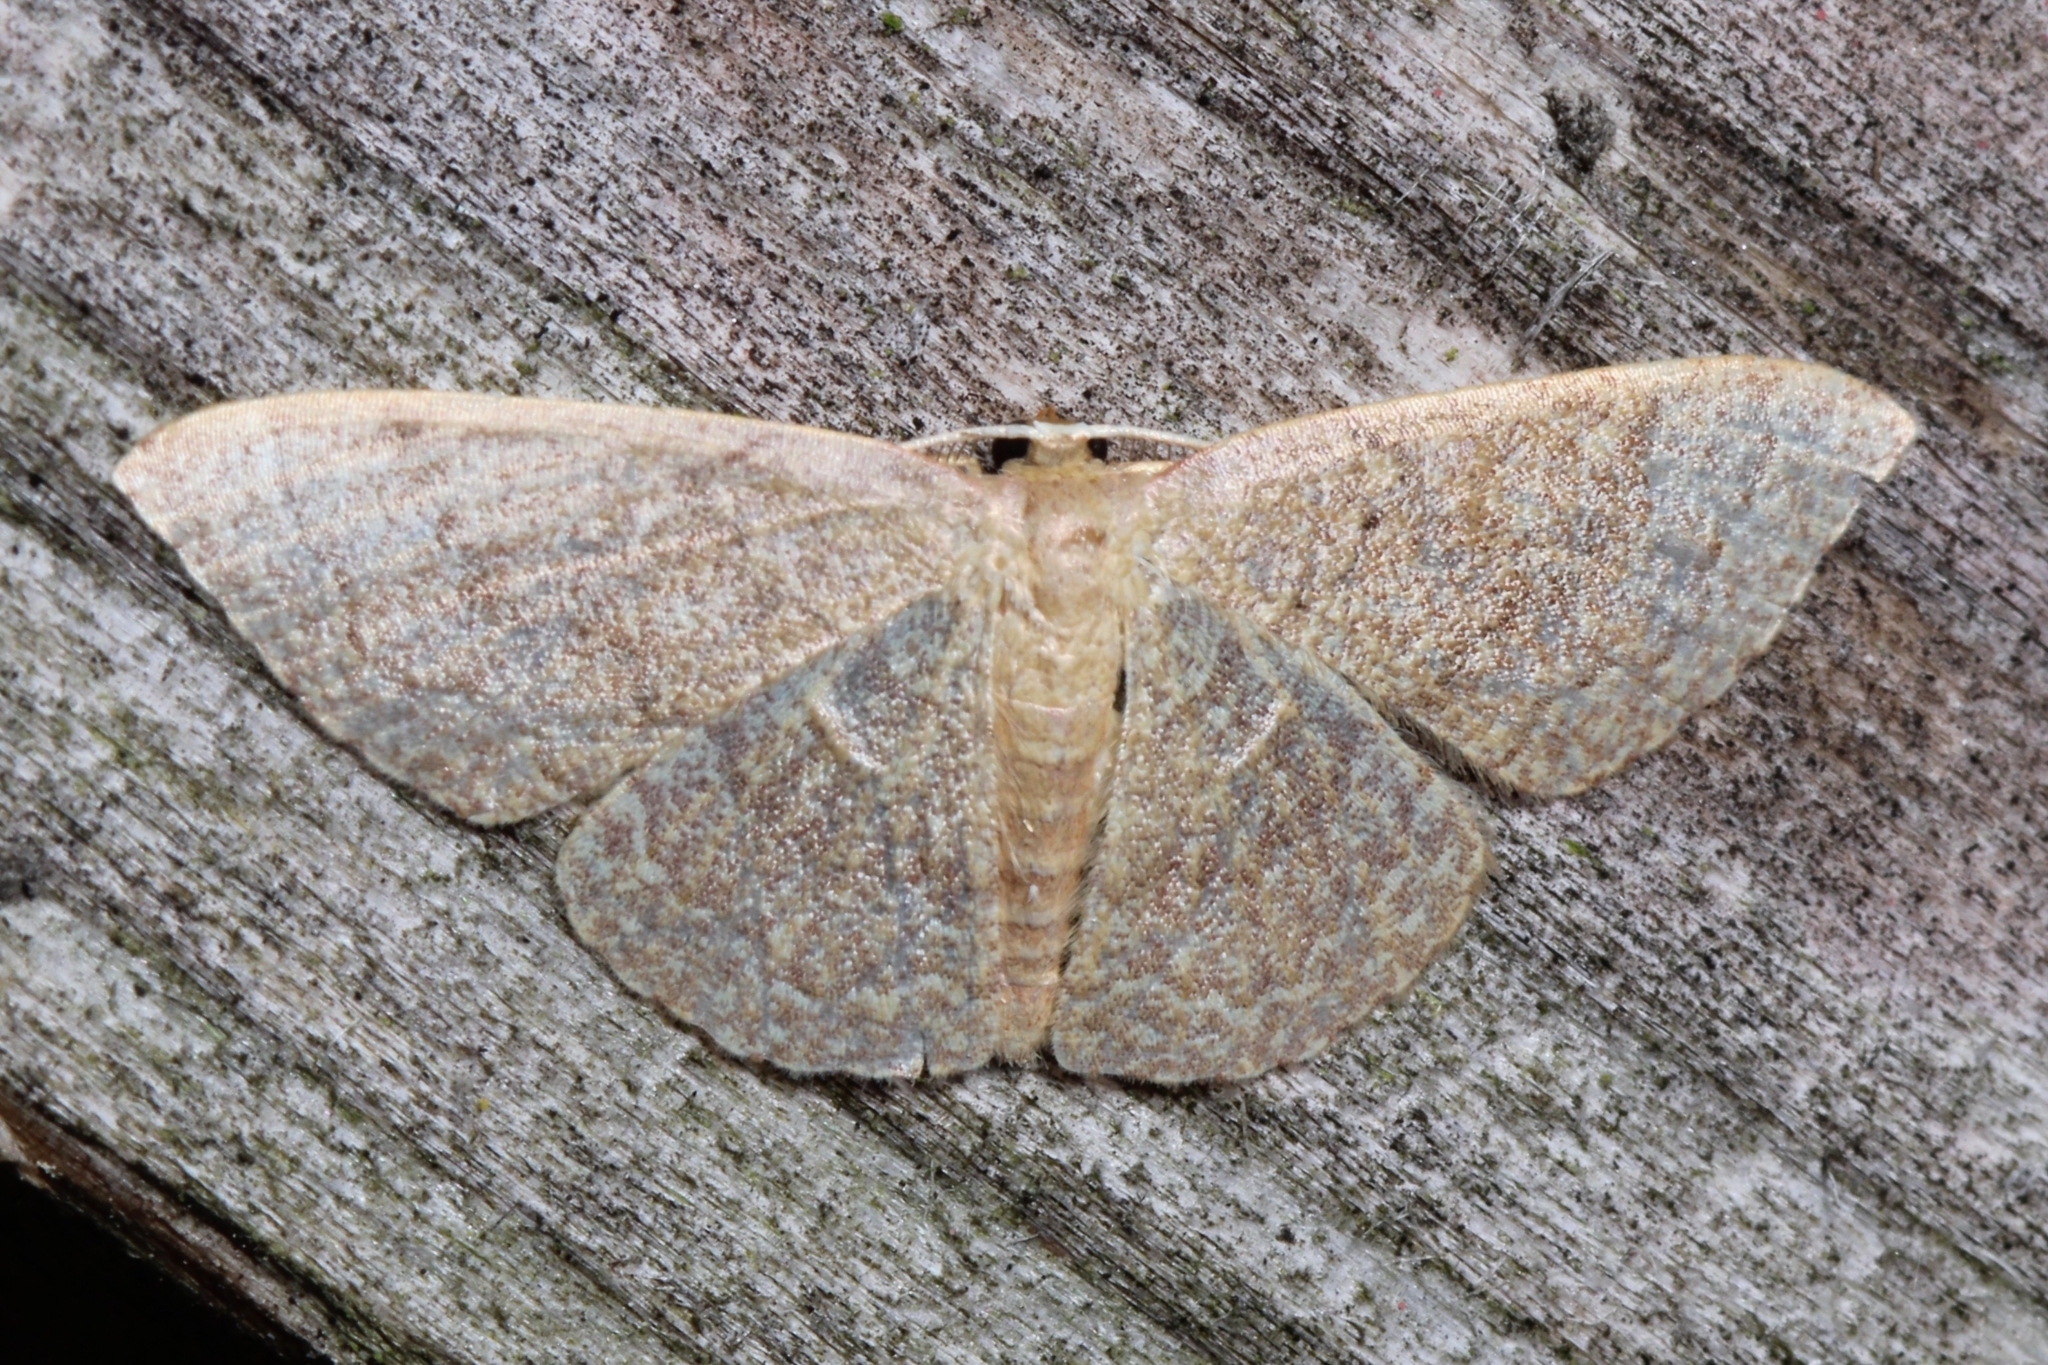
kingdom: Animalia
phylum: Arthropoda
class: Insecta
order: Lepidoptera
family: Geometridae
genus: Pleuroprucha
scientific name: Pleuroprucha insulsaria
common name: Common tan wave
